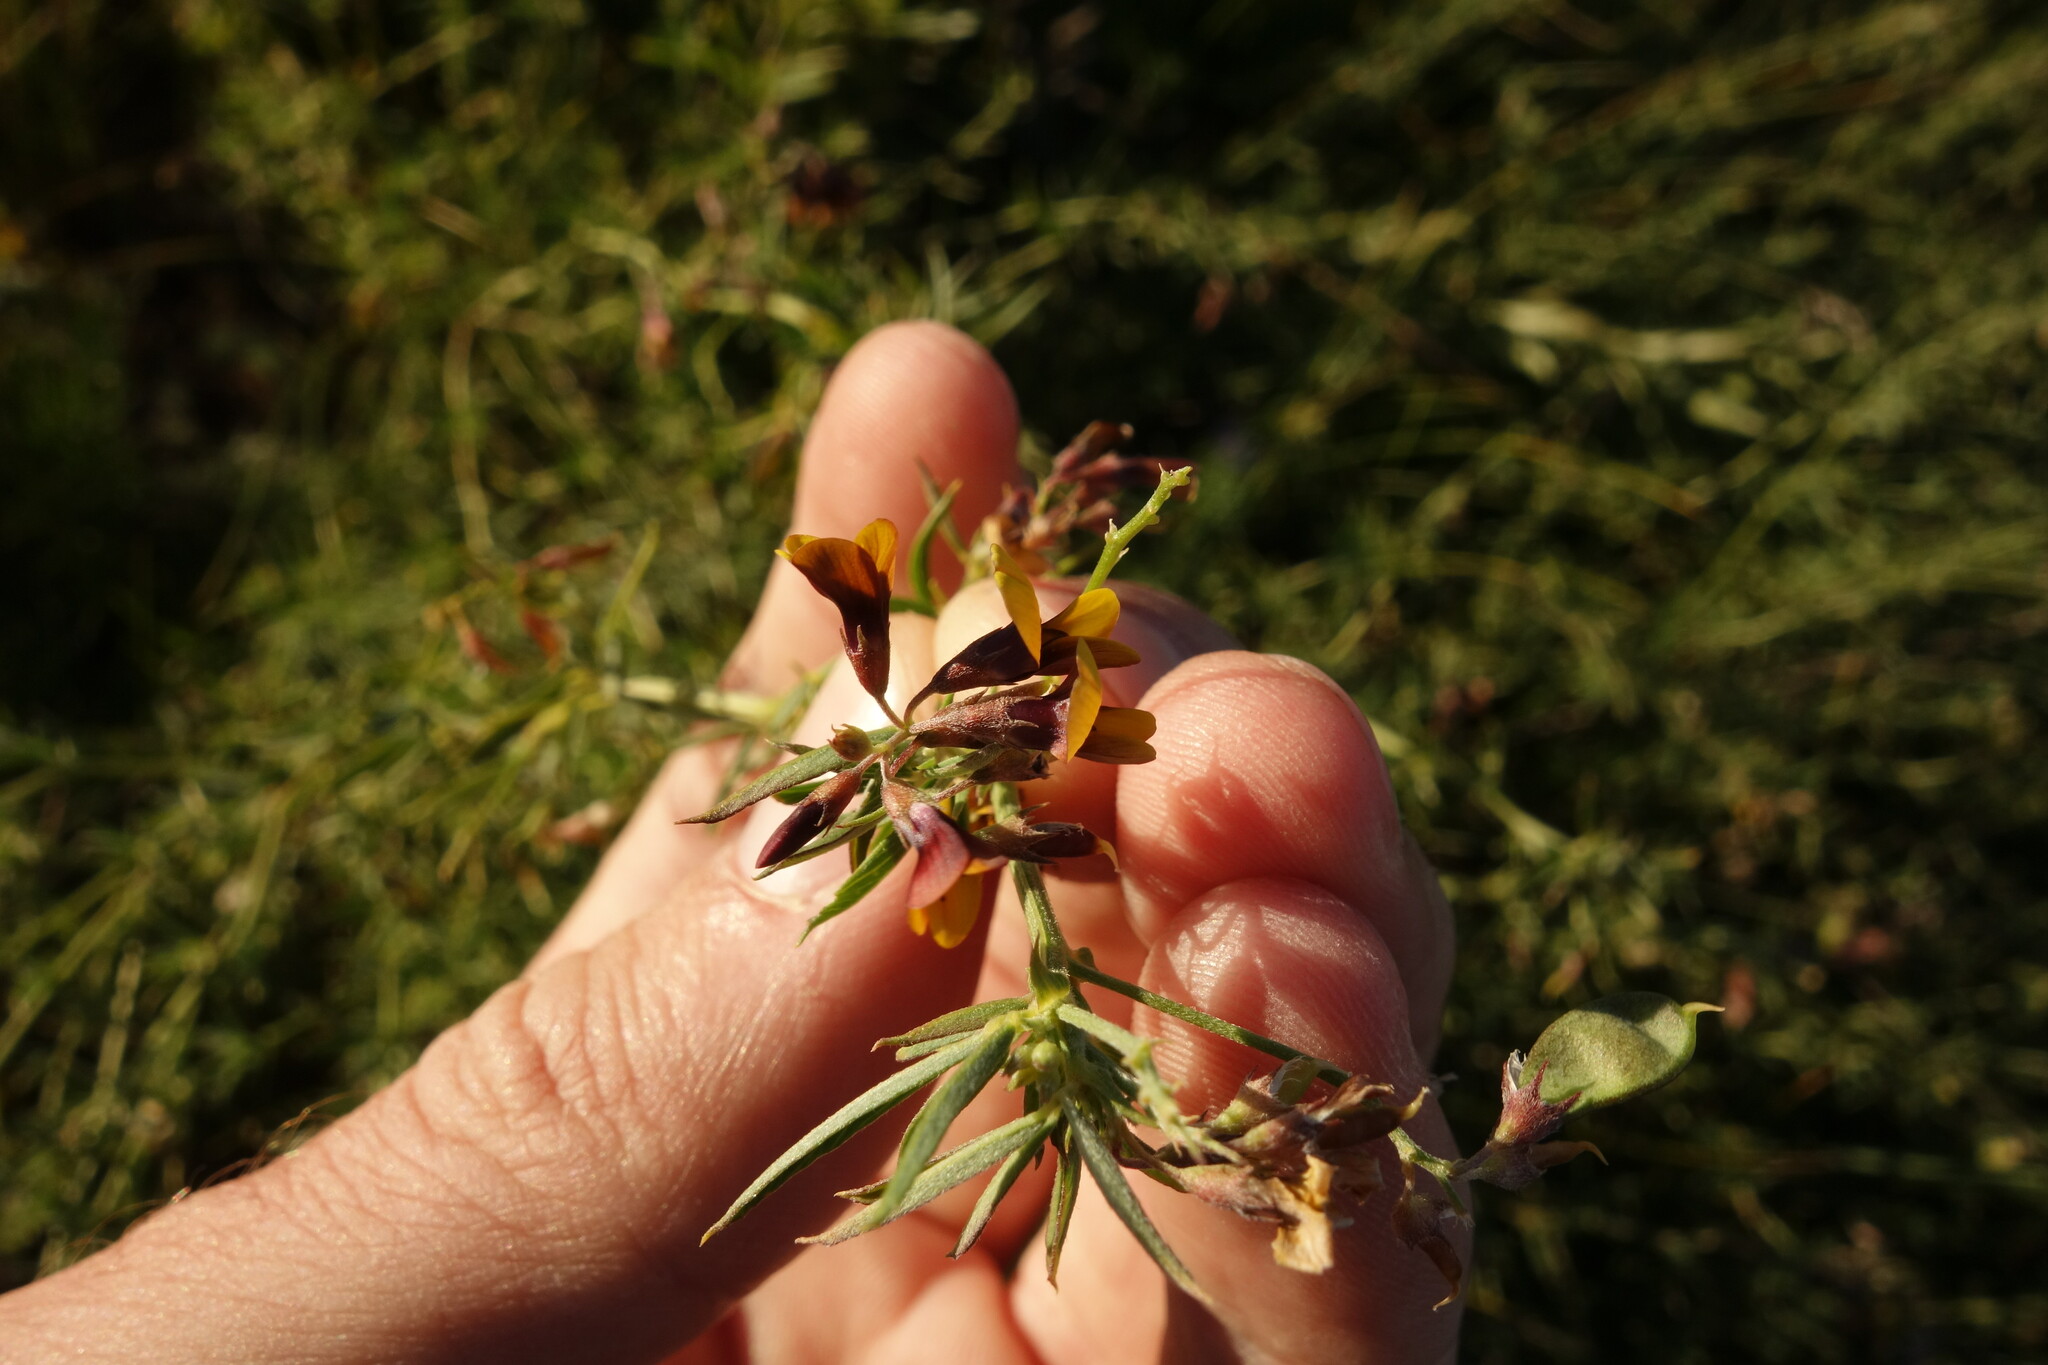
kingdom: Plantae
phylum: Tracheophyta
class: Magnoliopsida
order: Fabales
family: Fabaceae
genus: Medicago
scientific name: Medicago ruthenica
